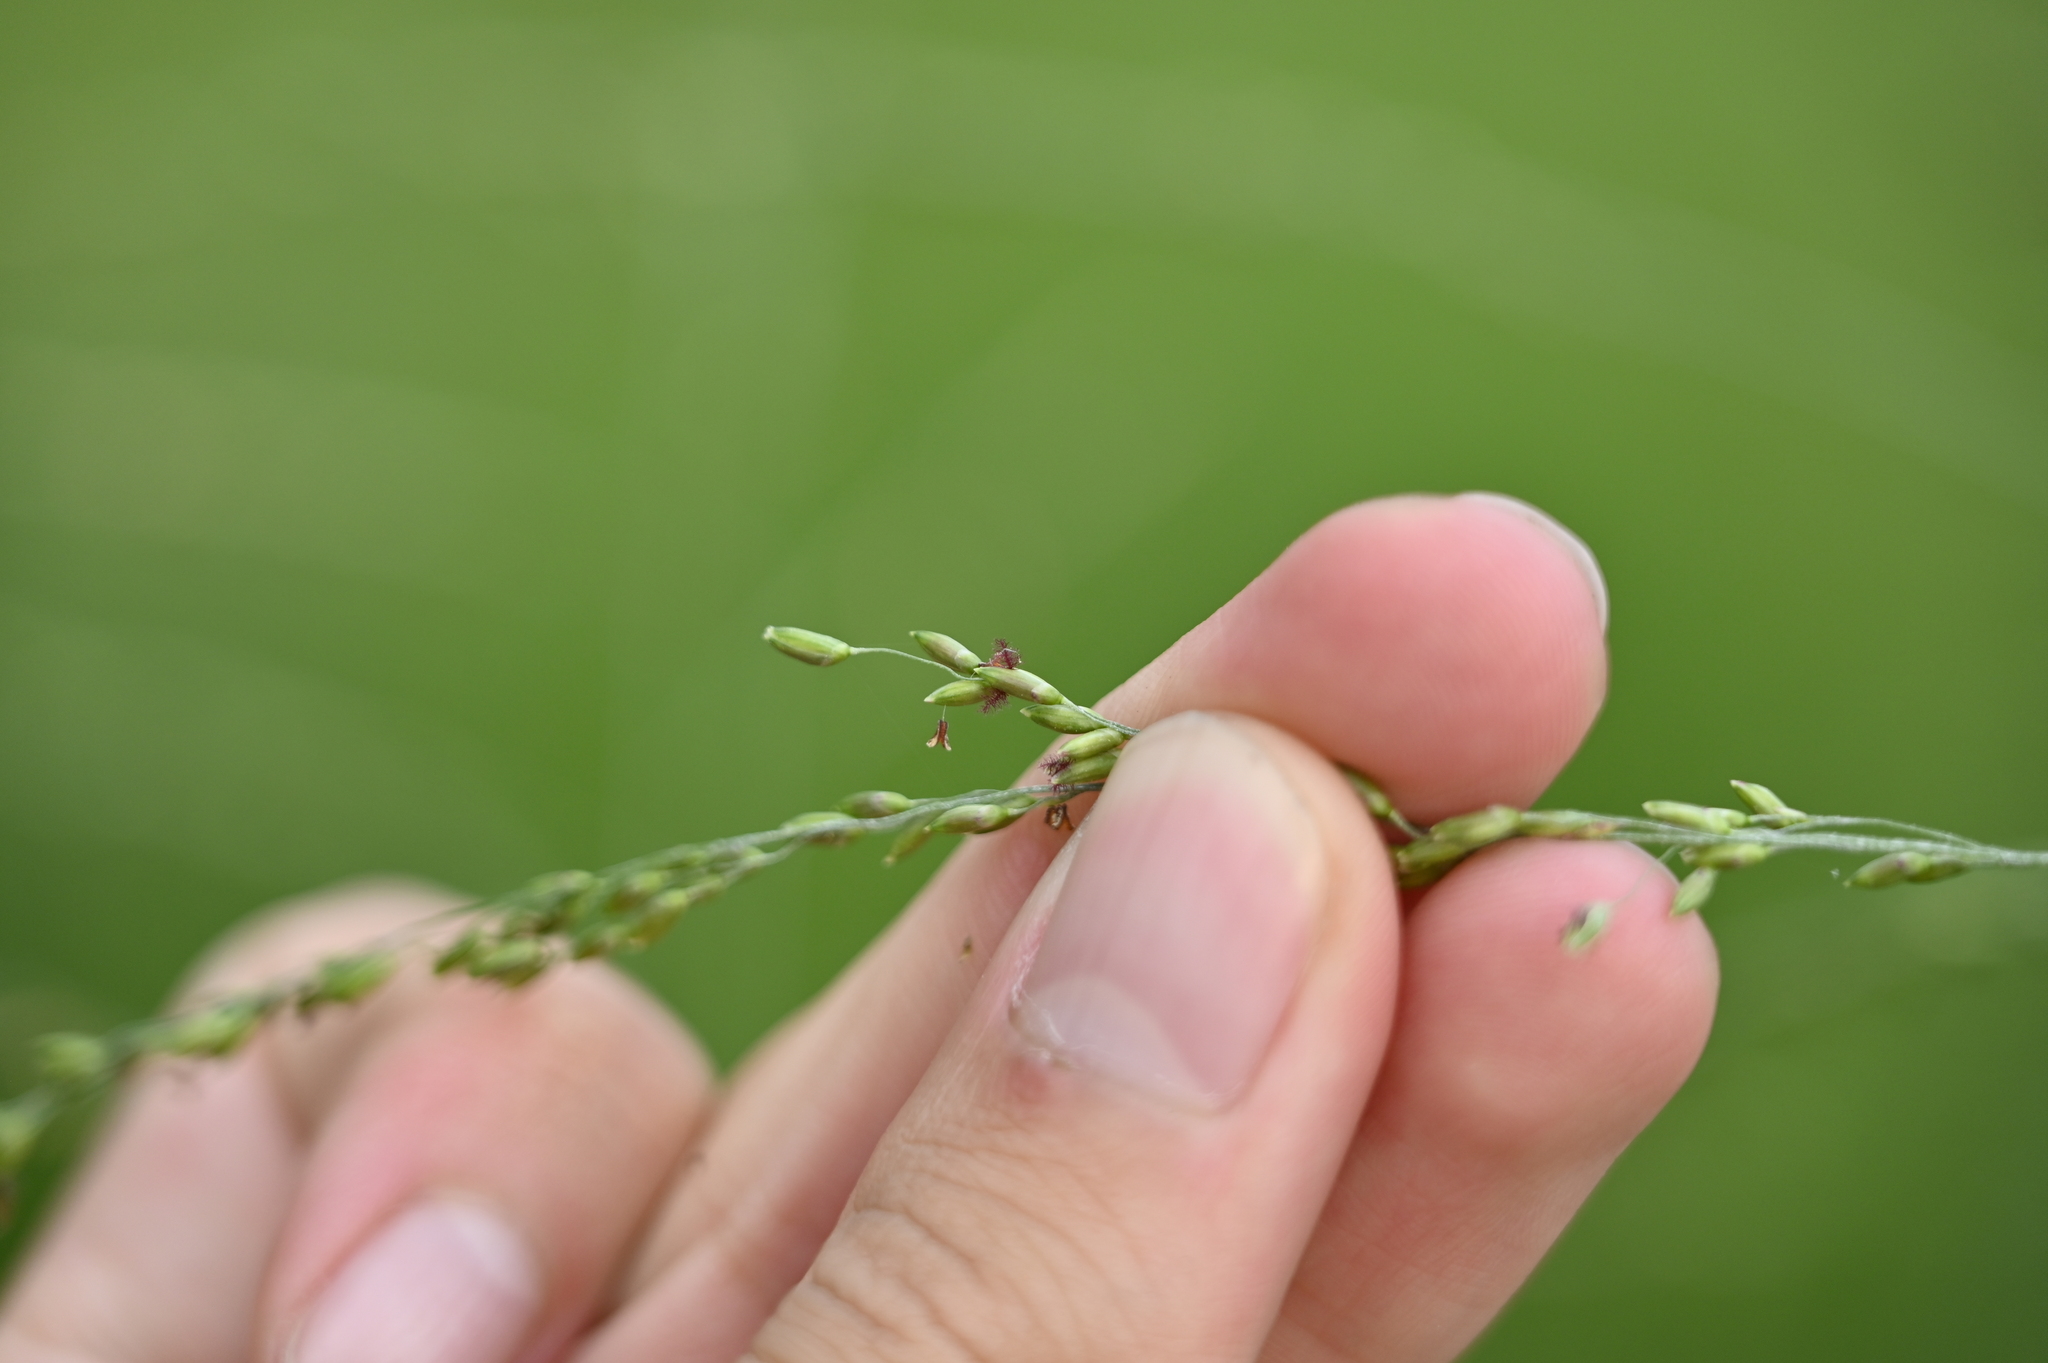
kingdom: Plantae
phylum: Tracheophyta
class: Liliopsida
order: Poales
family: Poaceae
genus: Megathyrsus
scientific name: Megathyrsus maximus
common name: Guineagrass
